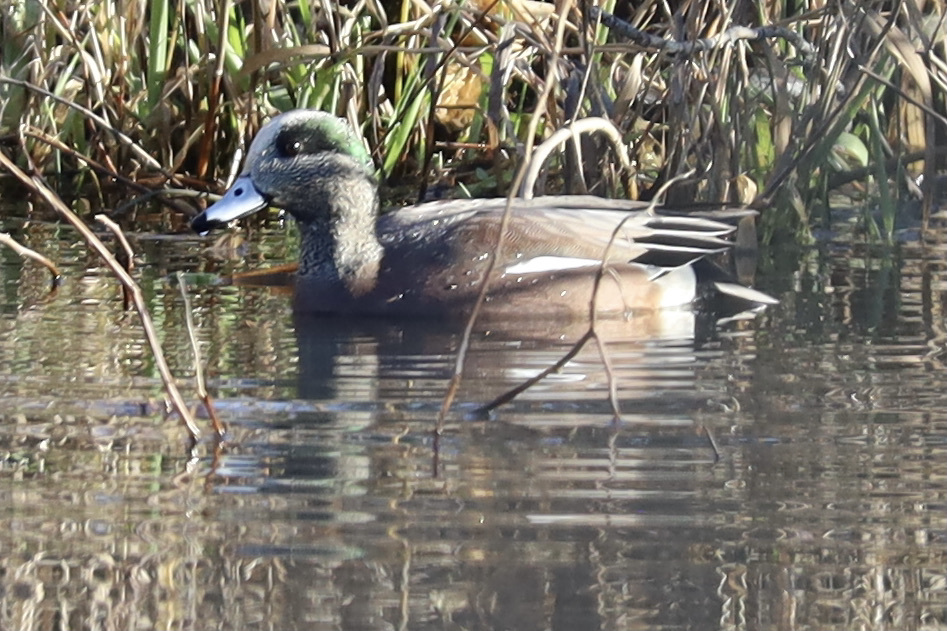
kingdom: Animalia
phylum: Chordata
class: Aves
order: Anseriformes
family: Anatidae
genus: Mareca
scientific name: Mareca americana
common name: American wigeon
